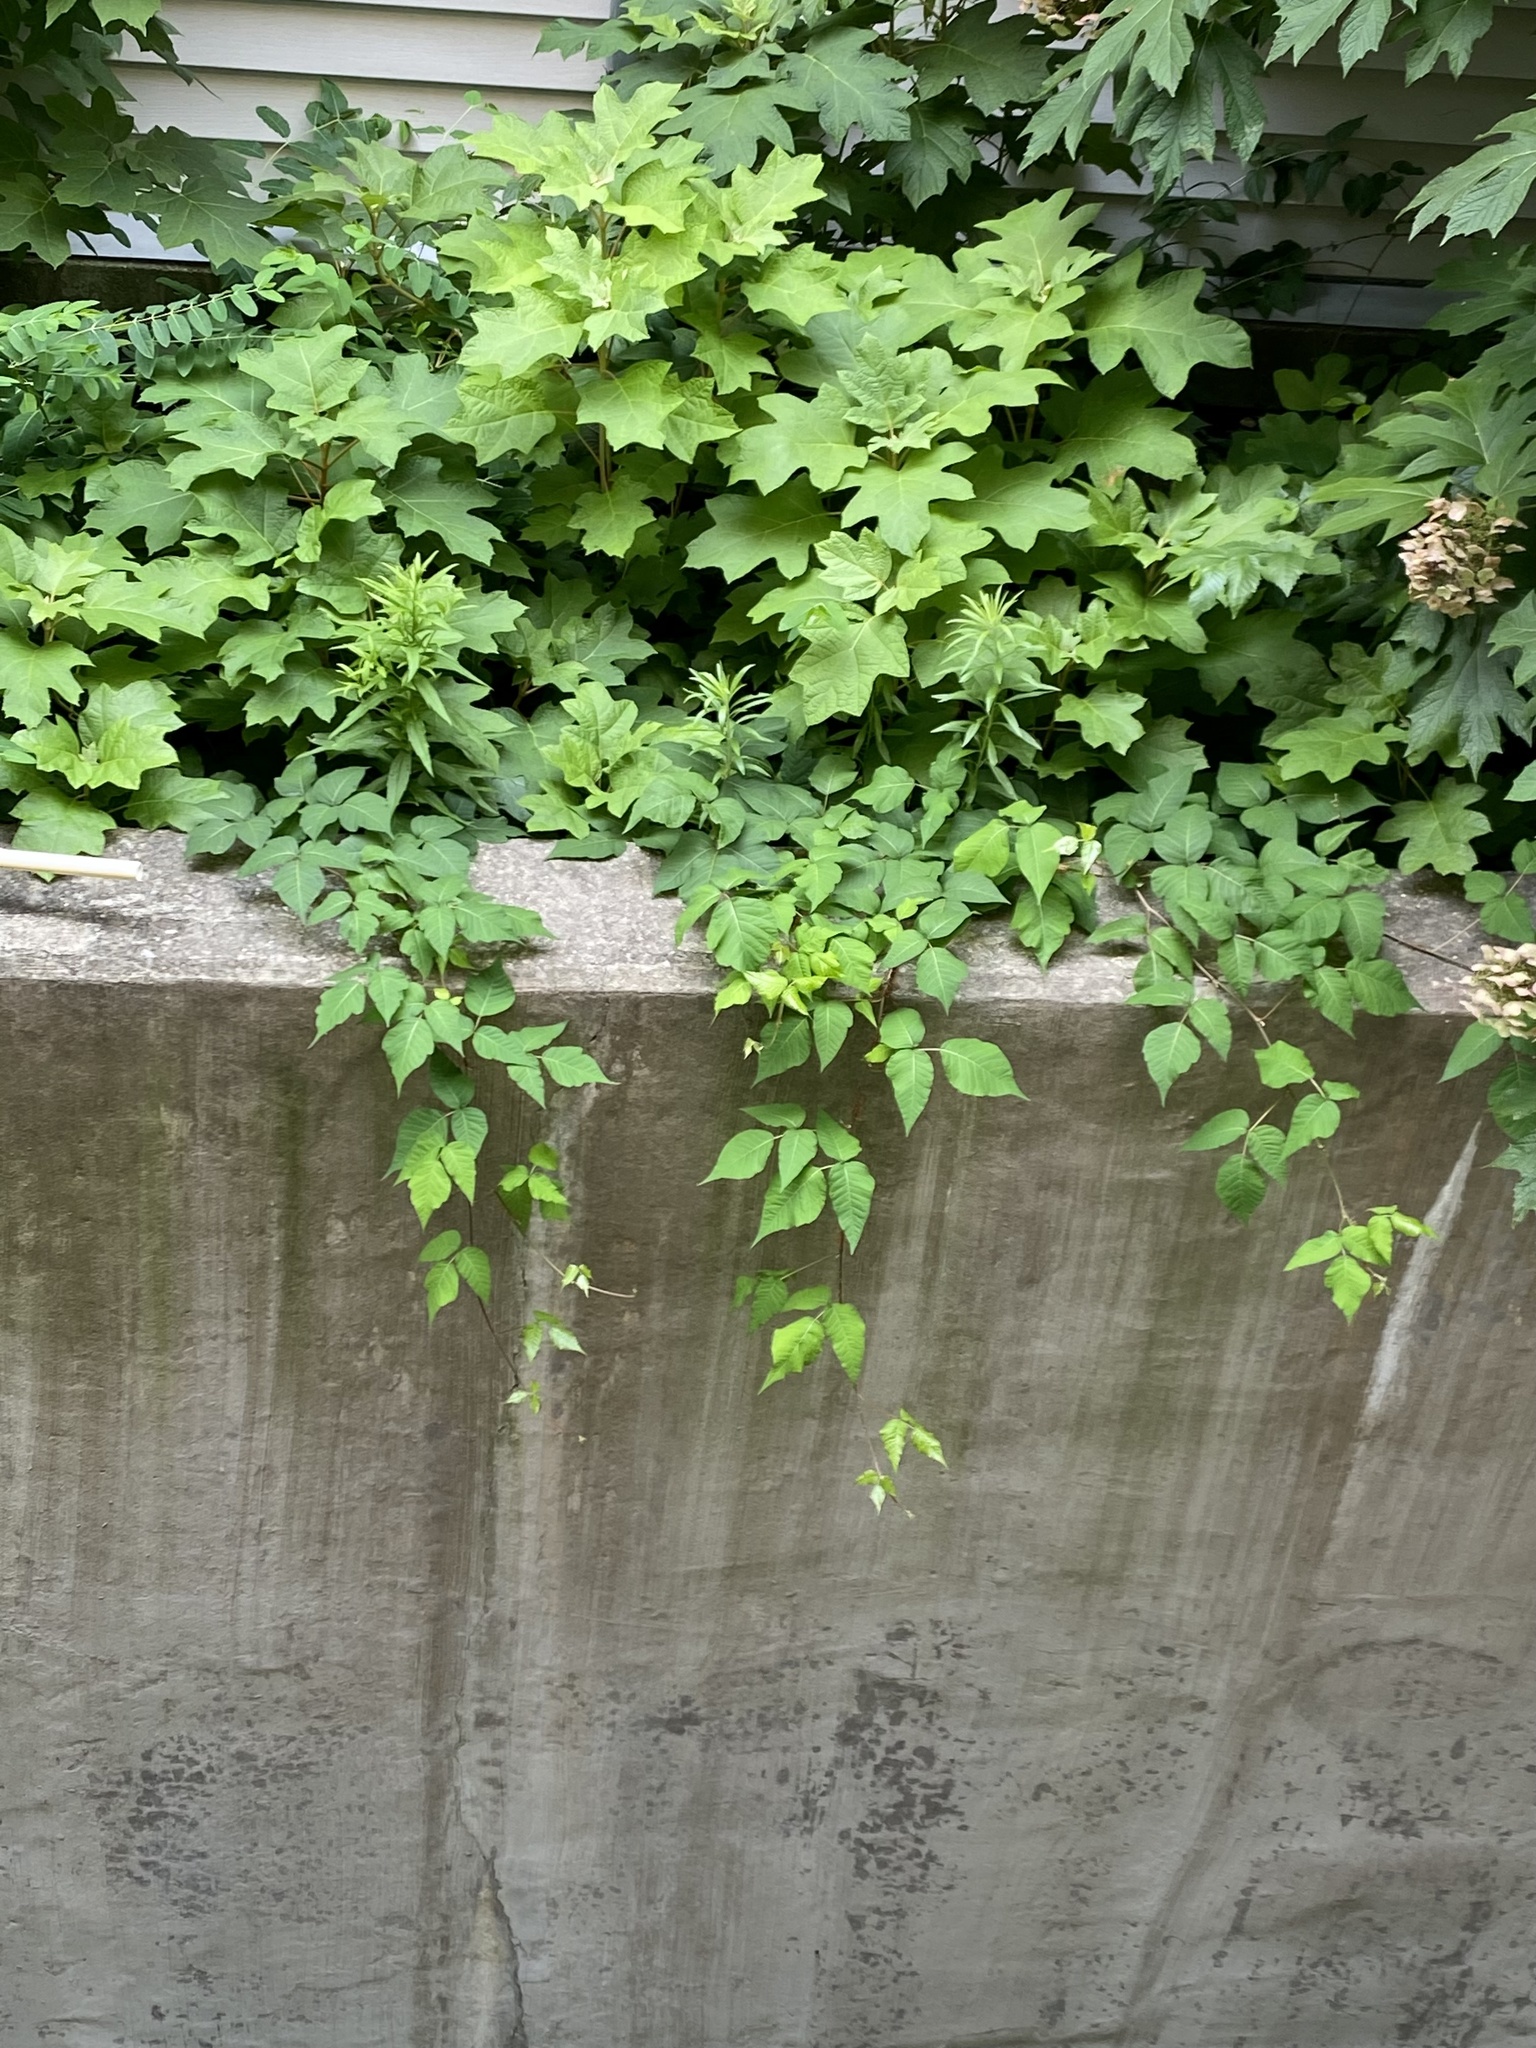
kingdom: Plantae
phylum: Tracheophyta
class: Magnoliopsida
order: Sapindales
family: Anacardiaceae
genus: Toxicodendron
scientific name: Toxicodendron radicans
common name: Poison ivy
